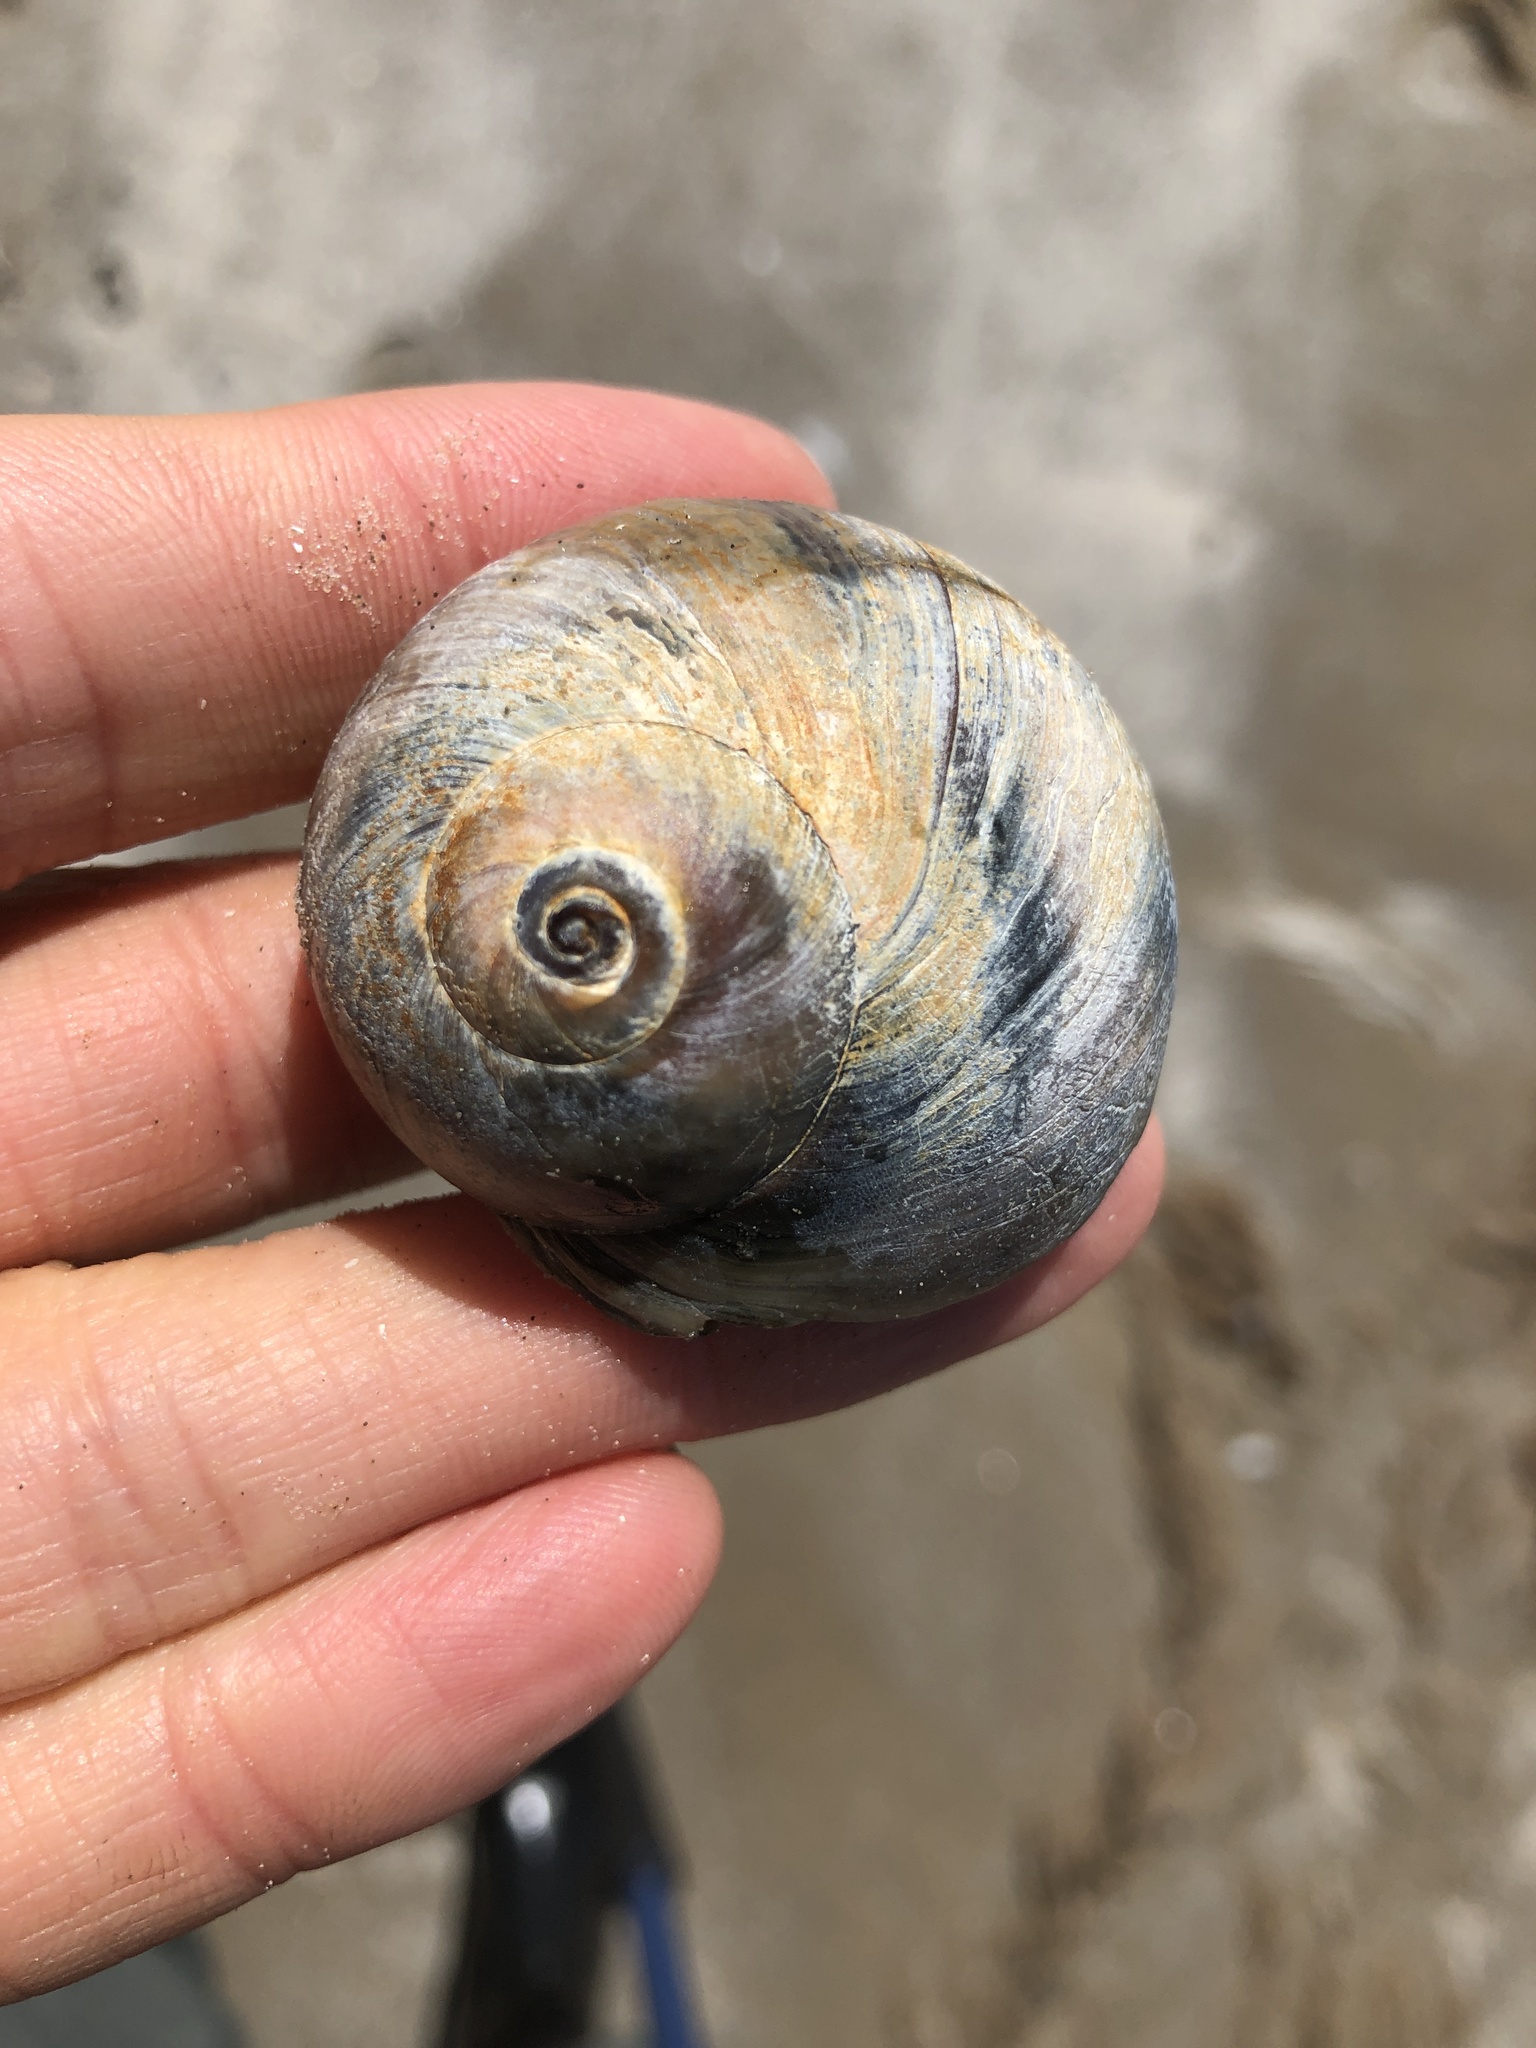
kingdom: Animalia
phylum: Mollusca
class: Gastropoda
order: Littorinimorpha
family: Naticidae
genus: Neverita
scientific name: Neverita delessertiana
